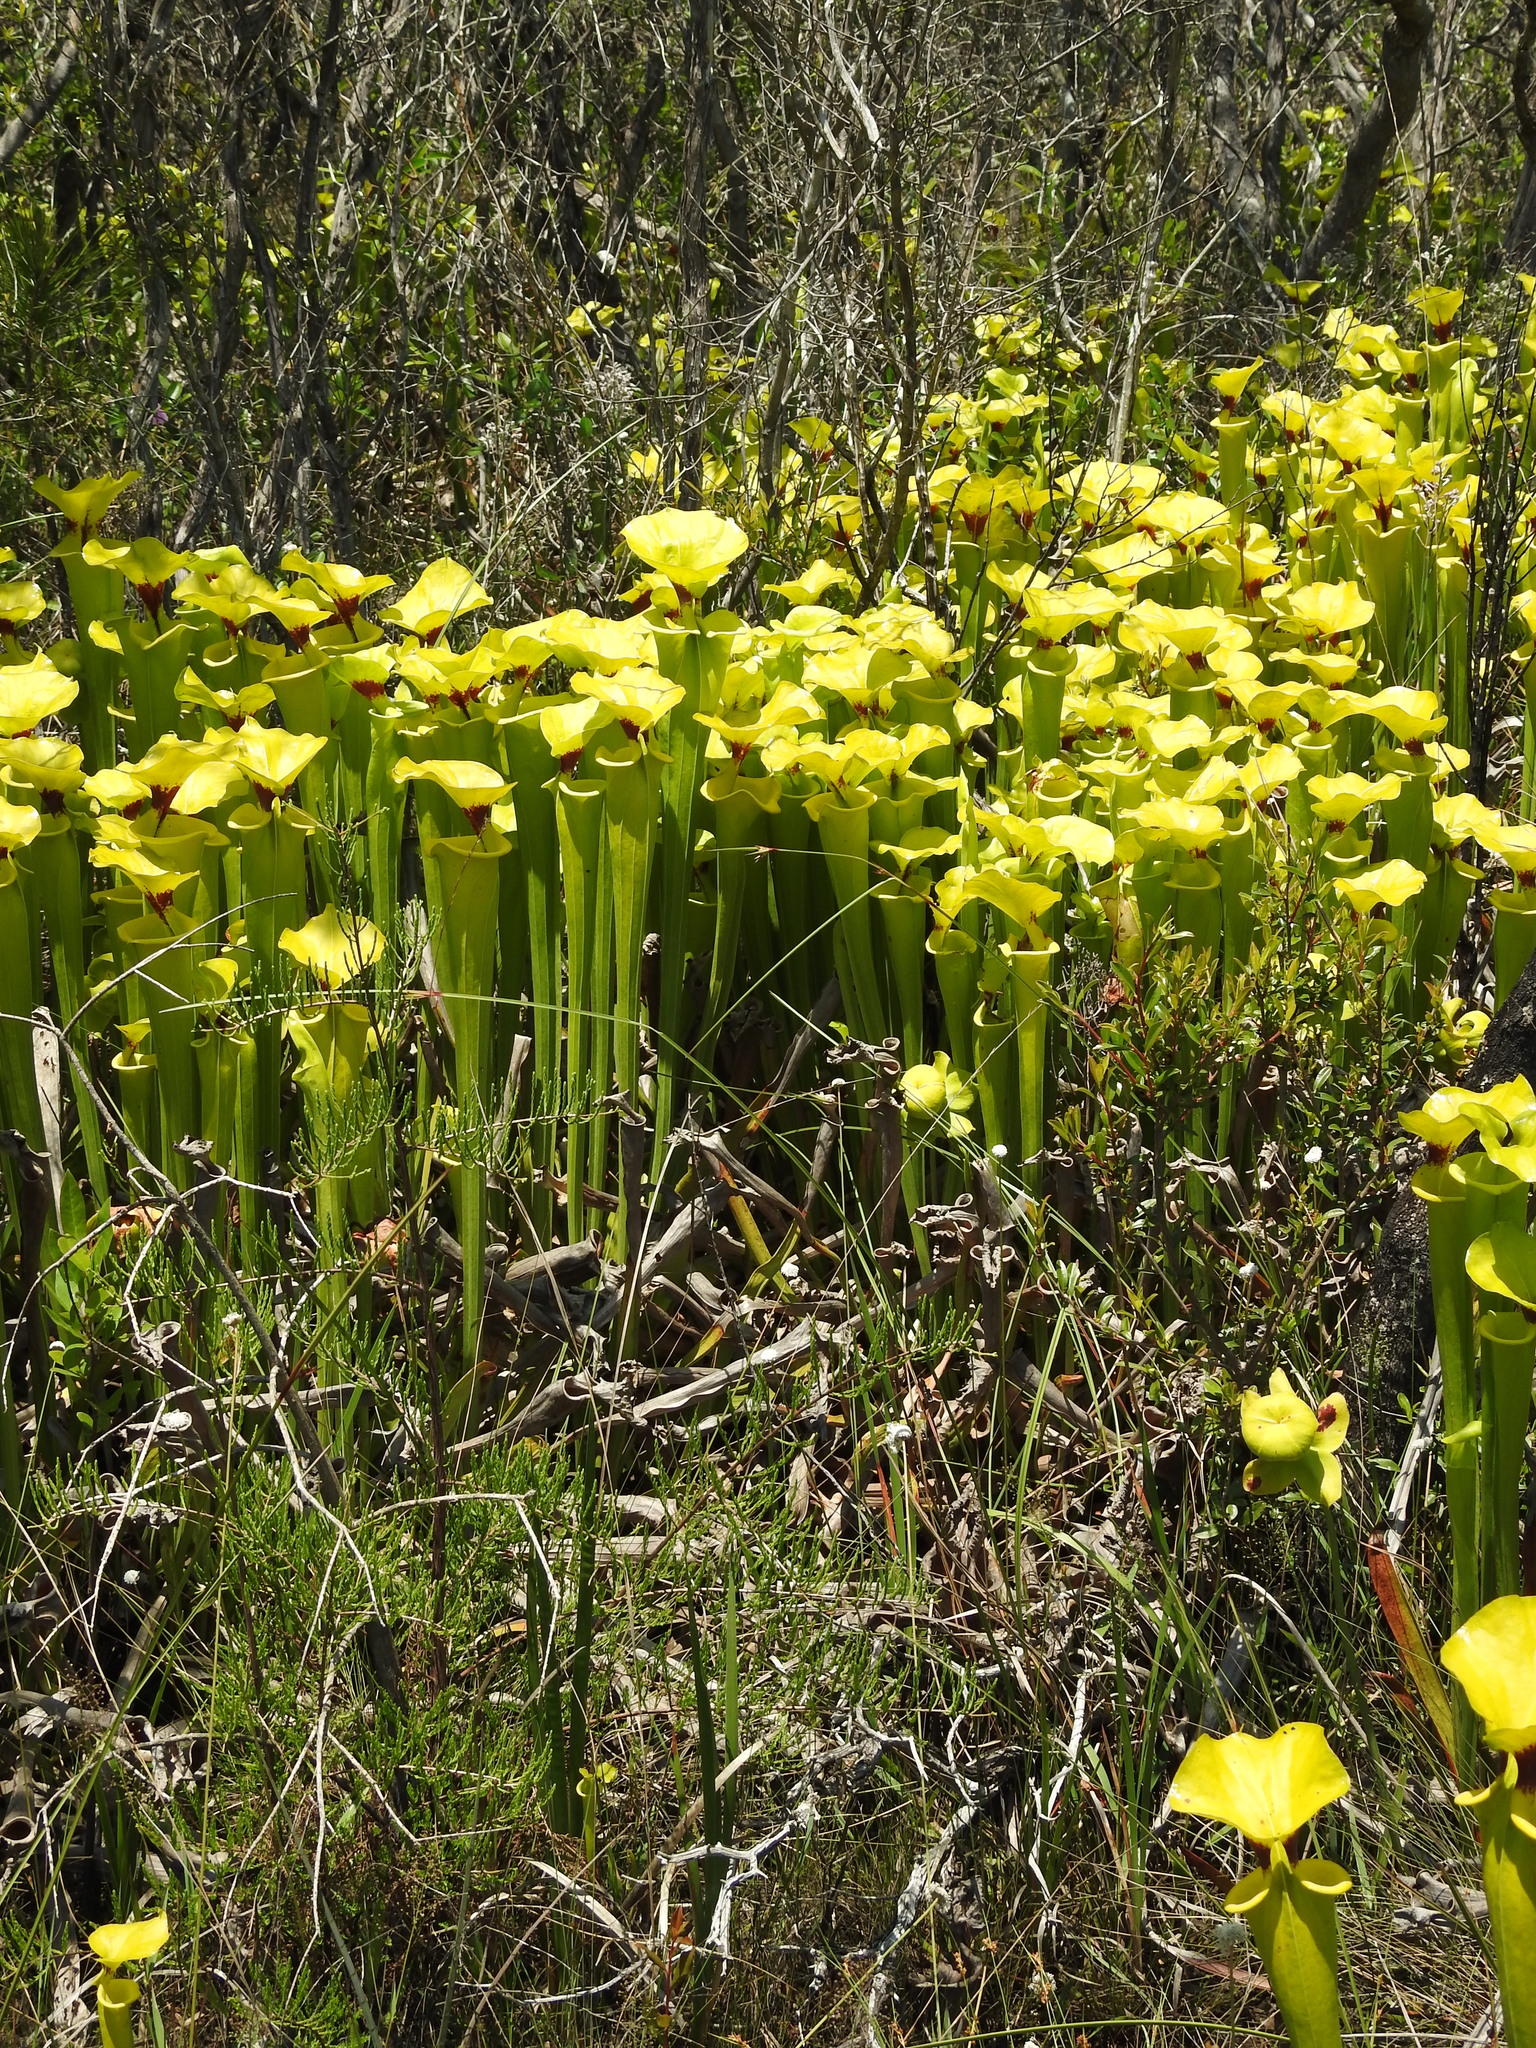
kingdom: Plantae
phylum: Tracheophyta
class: Magnoliopsida
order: Ericales
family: Sarraceniaceae
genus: Sarracenia
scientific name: Sarracenia flava
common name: Trumpets
